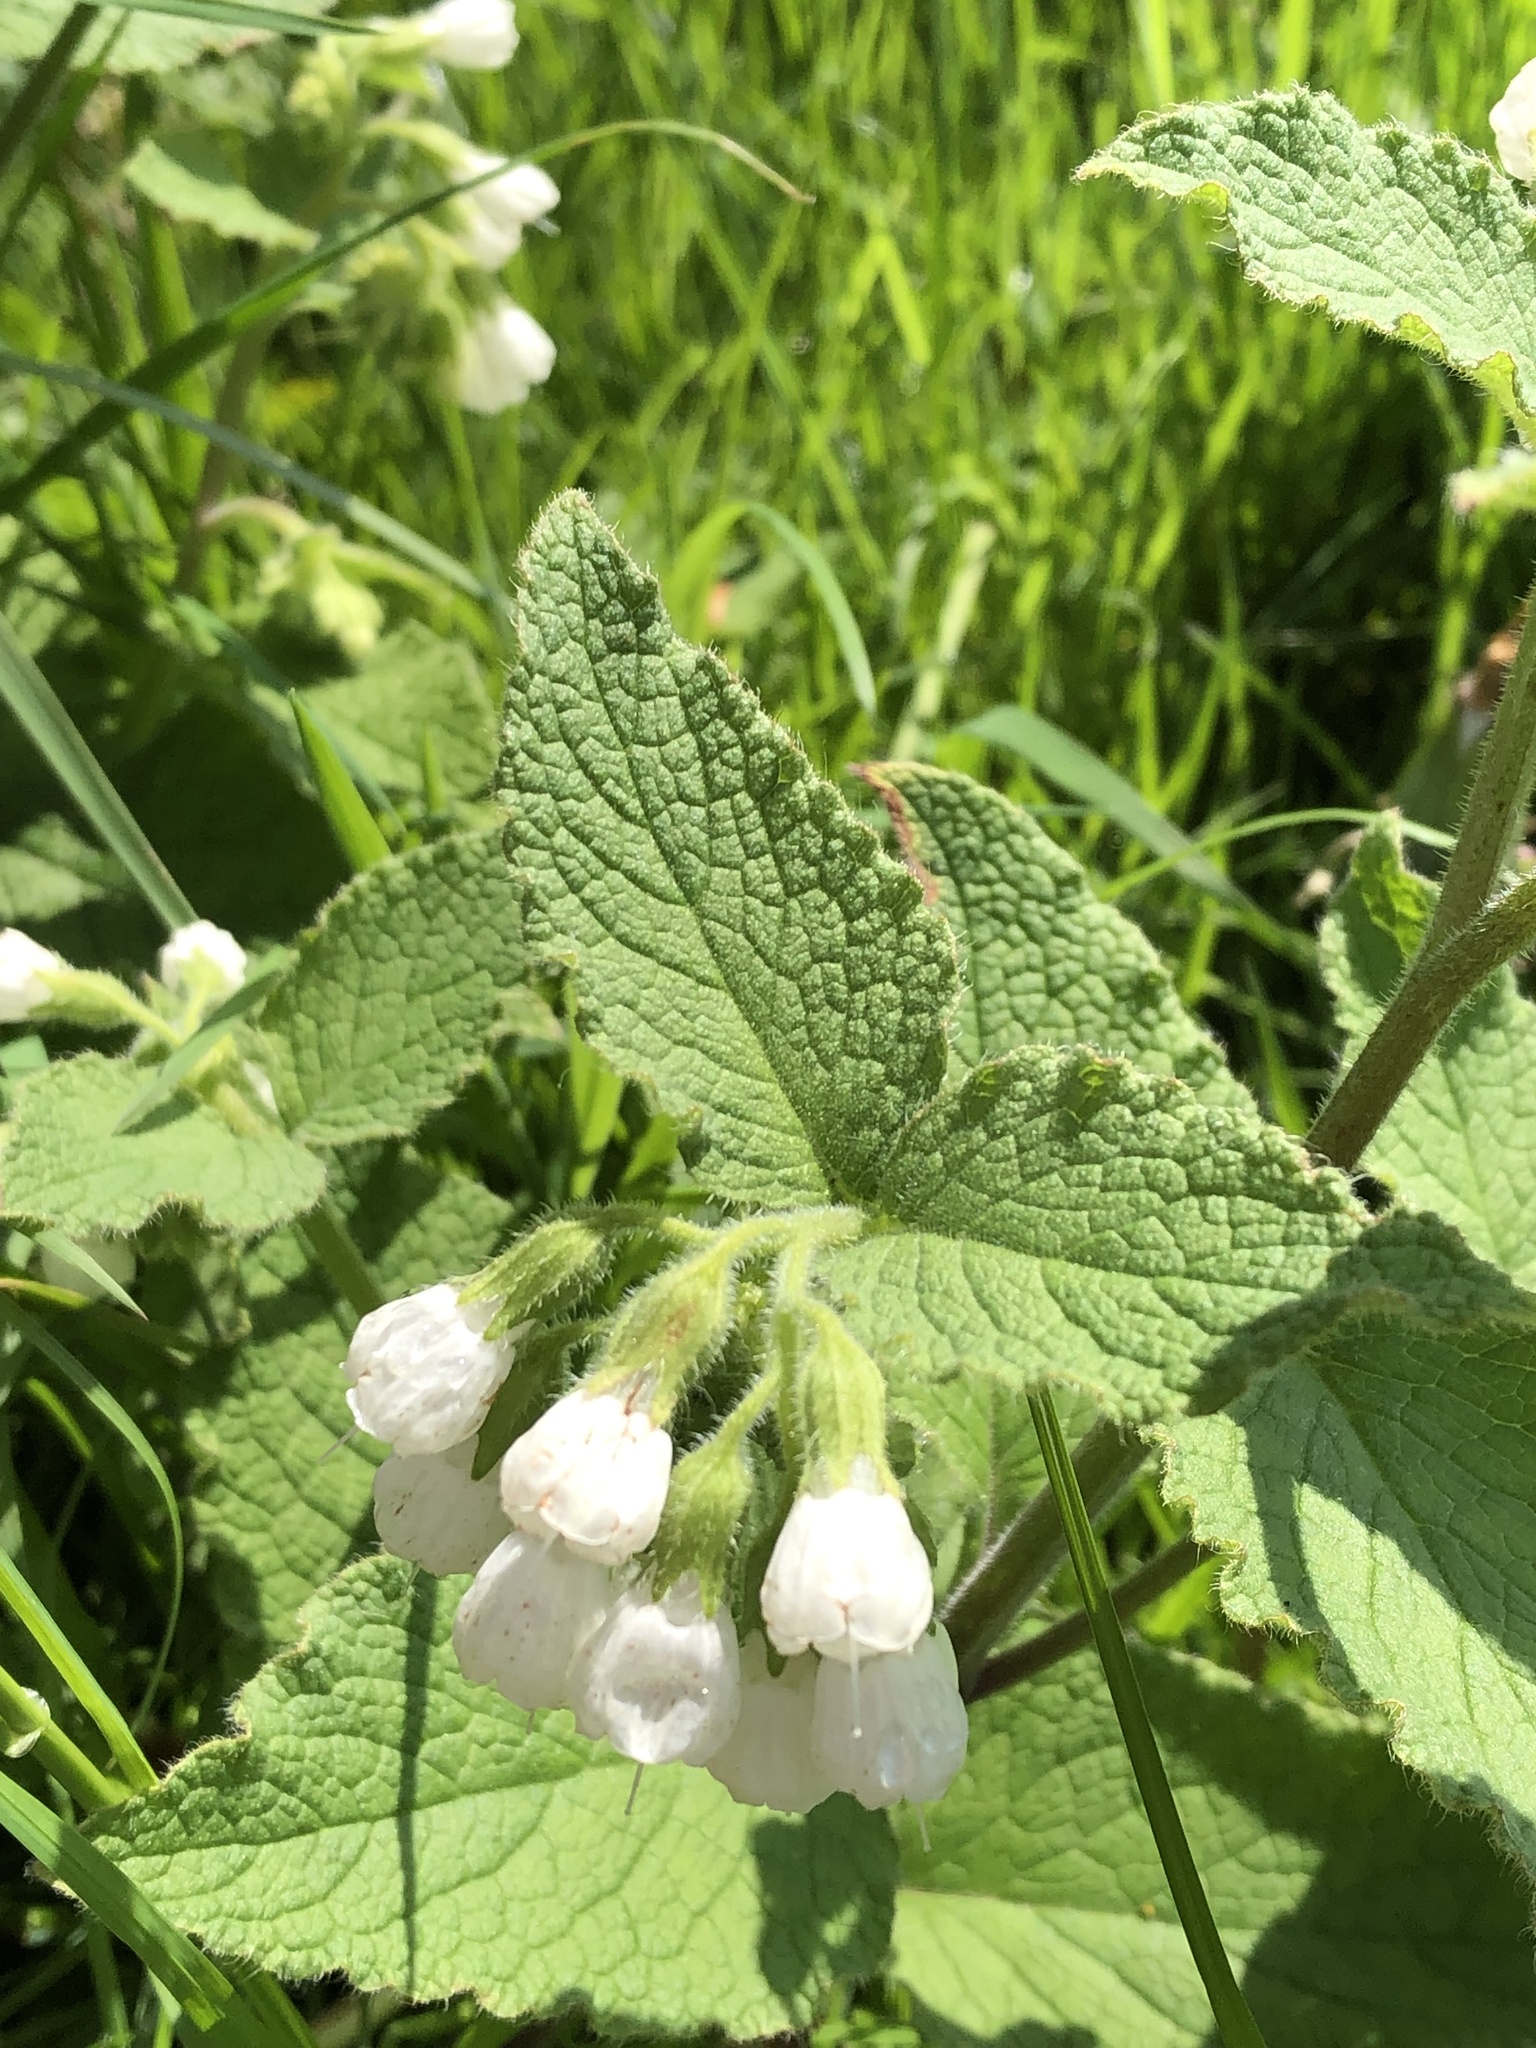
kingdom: Plantae
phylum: Tracheophyta
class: Magnoliopsida
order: Boraginales
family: Boraginaceae
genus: Symphytum
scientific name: Symphytum orientale
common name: White comfrey
